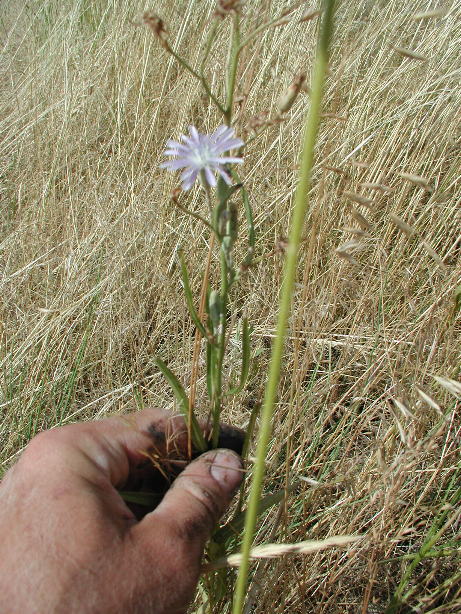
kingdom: Plantae
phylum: Tracheophyta
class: Magnoliopsida
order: Asterales
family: Asteraceae
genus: Cichorium
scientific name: Cichorium intybus
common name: Chicory
